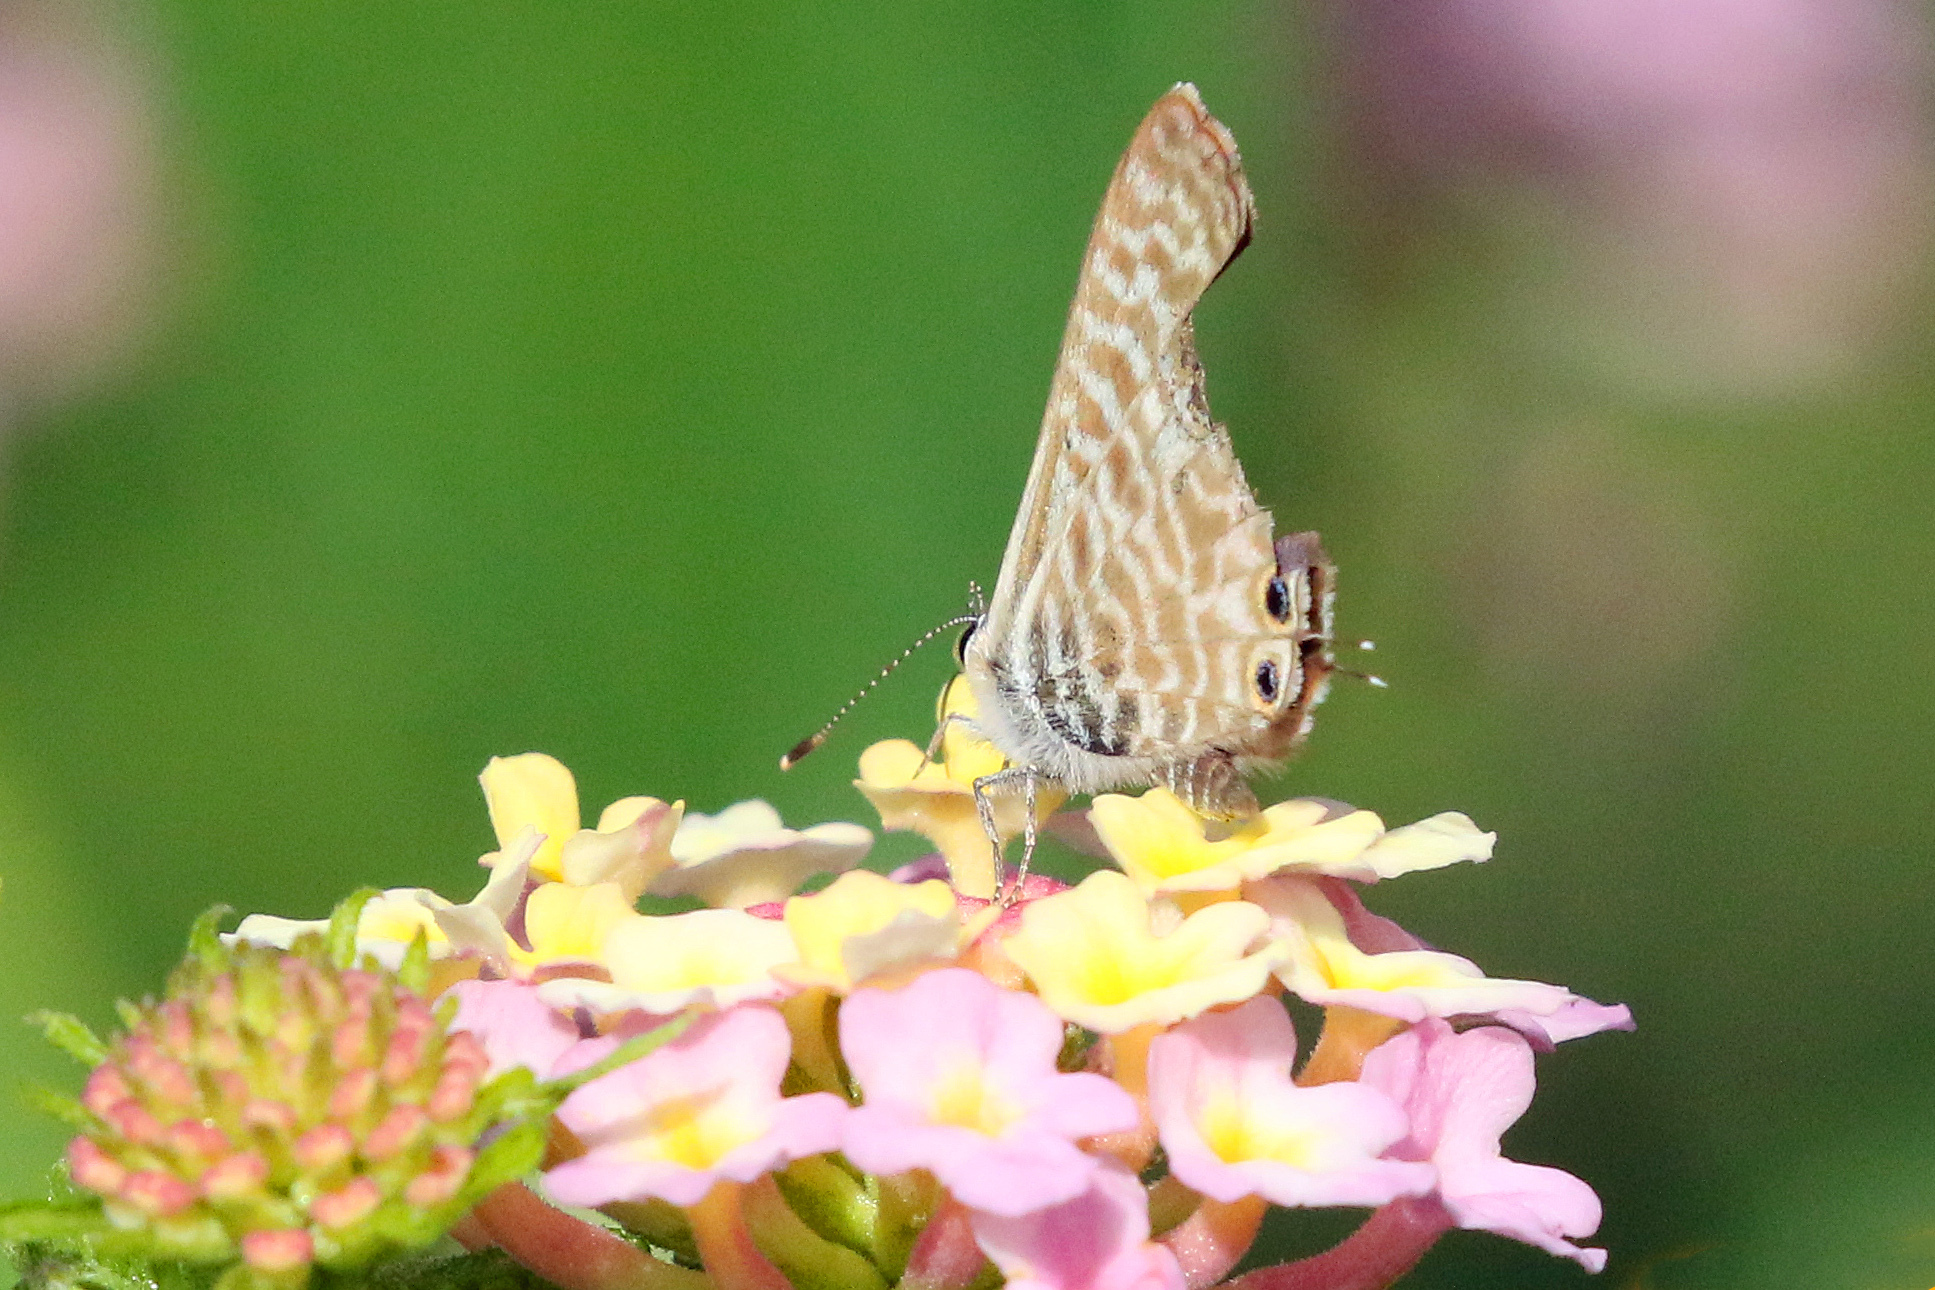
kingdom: Animalia
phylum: Arthropoda
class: Insecta
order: Lepidoptera
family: Lycaenidae
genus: Leptotes
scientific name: Leptotes pirithous
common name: Lang's short-tailed blue
